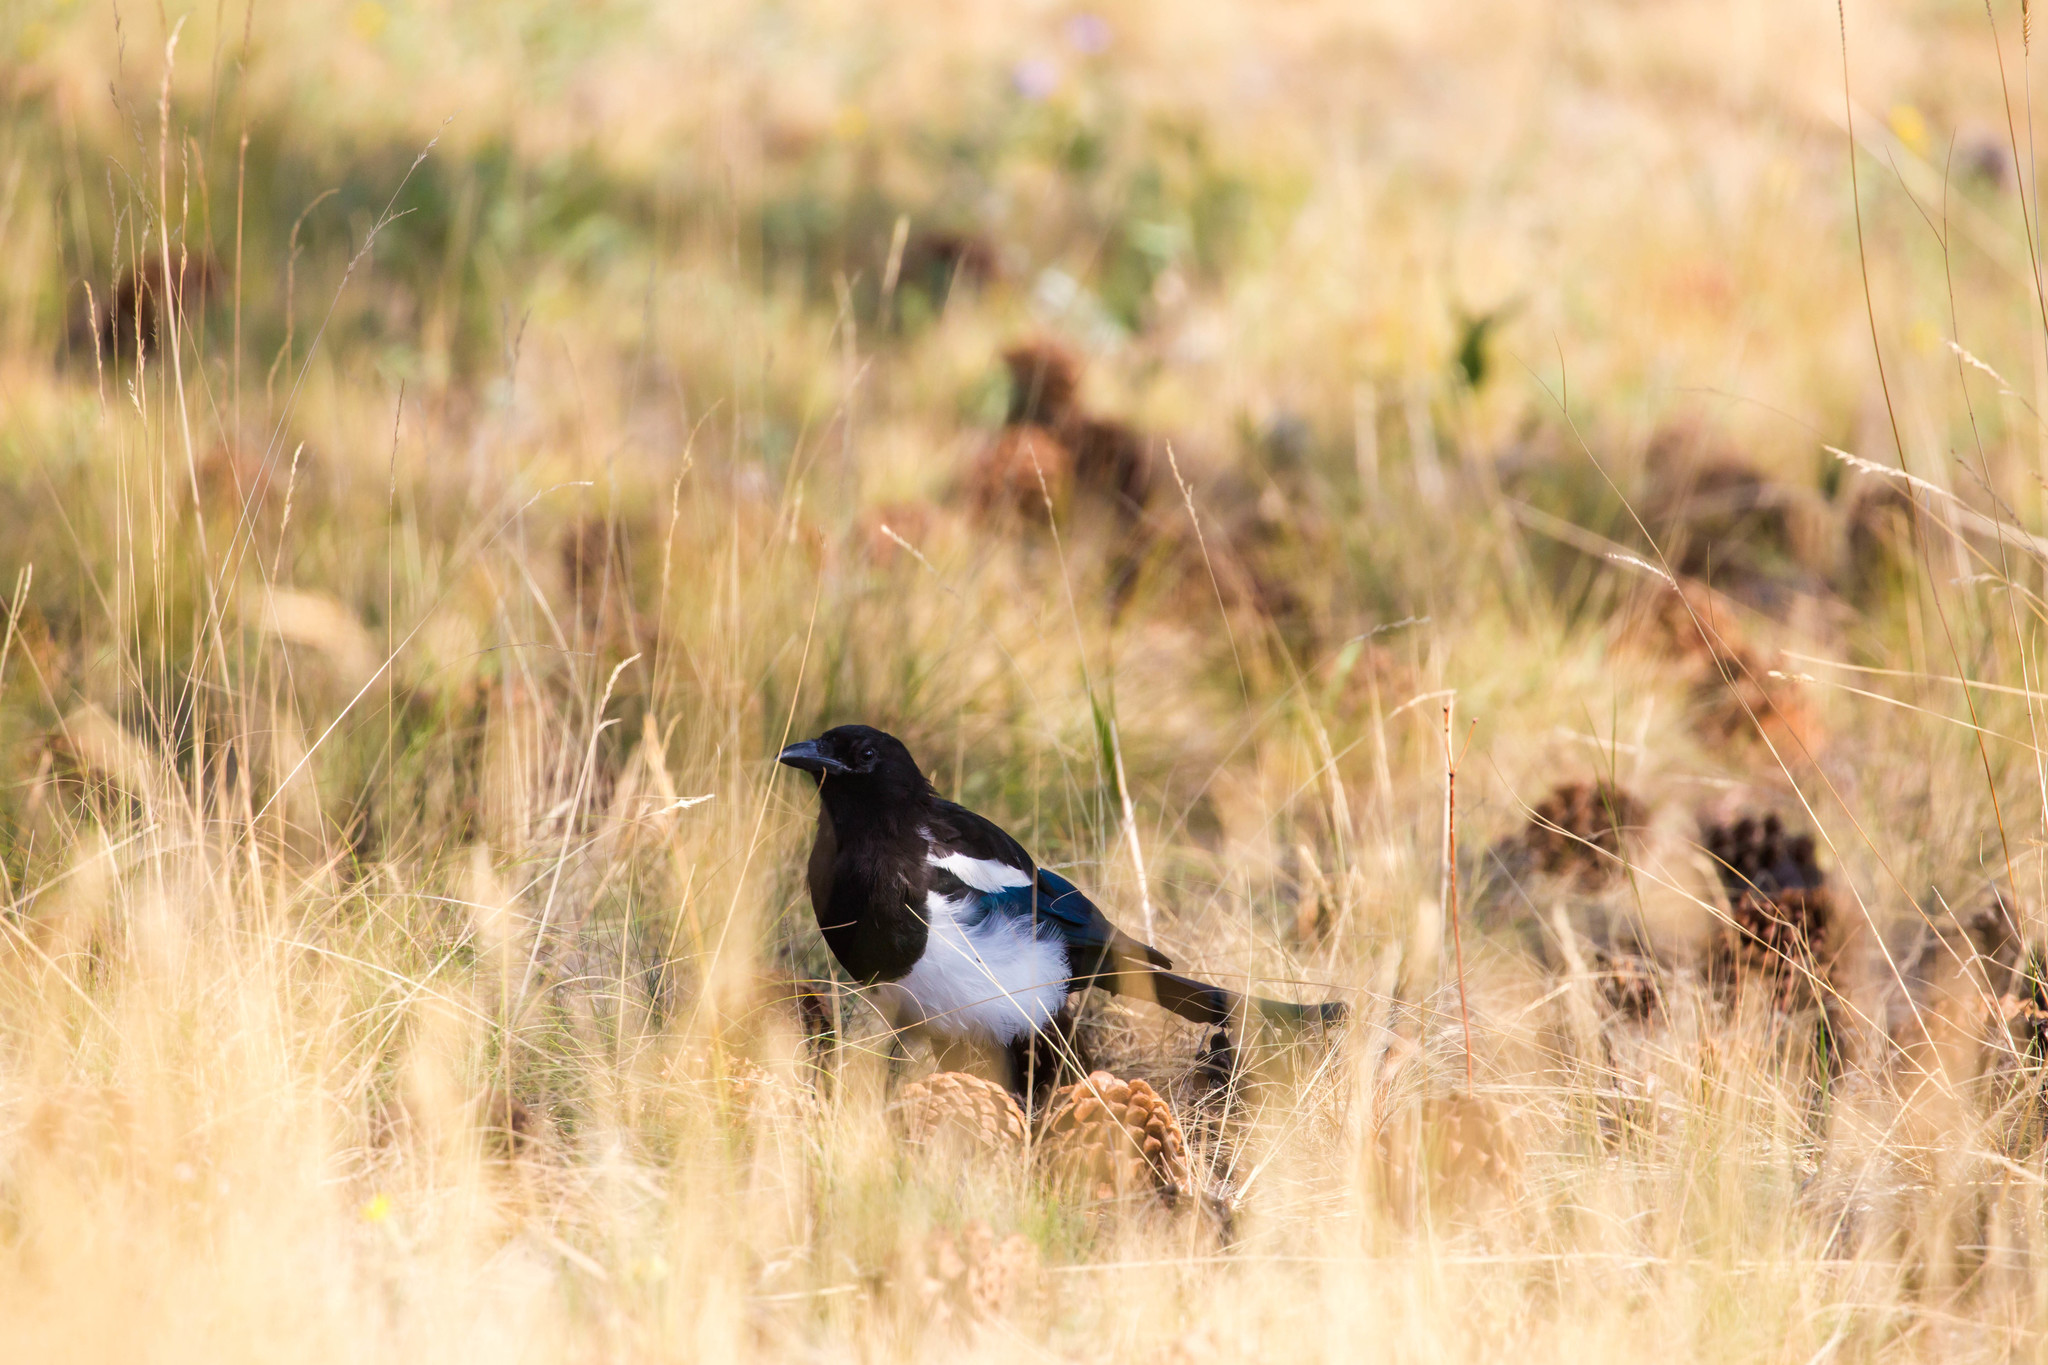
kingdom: Animalia
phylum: Chordata
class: Aves
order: Passeriformes
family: Corvidae
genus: Pica
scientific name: Pica hudsonia
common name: Black-billed magpie
